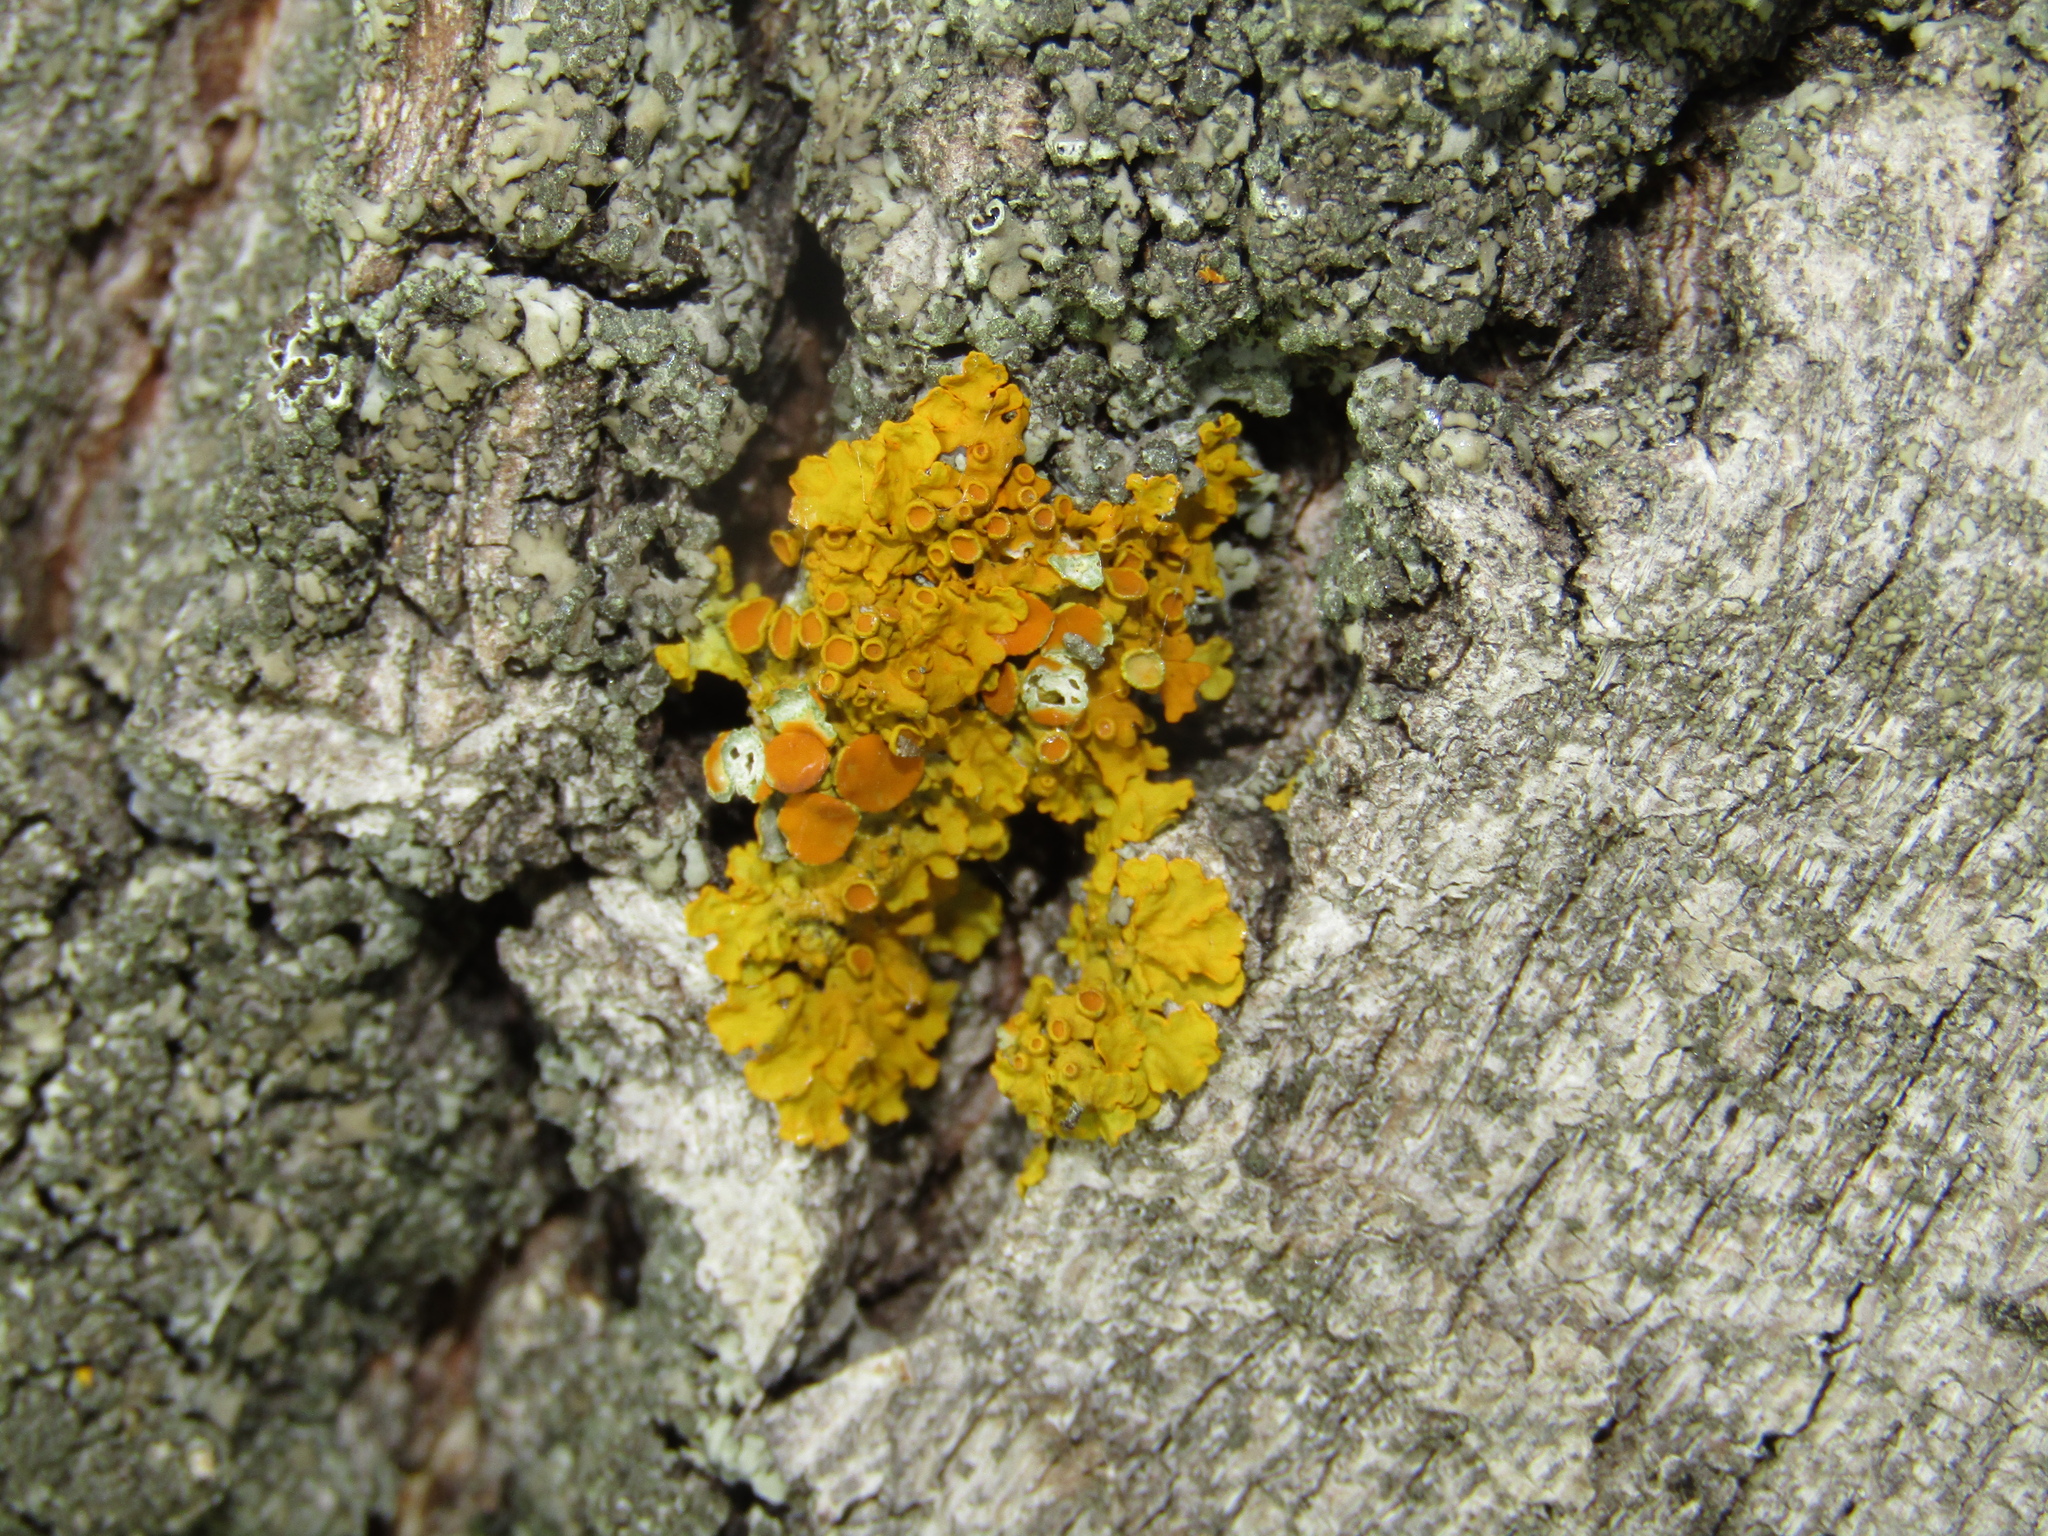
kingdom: Fungi
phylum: Ascomycota
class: Lecanoromycetes
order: Teloschistales
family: Teloschistaceae
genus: Xanthoria
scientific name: Xanthoria parietina
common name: Common orange lichen
